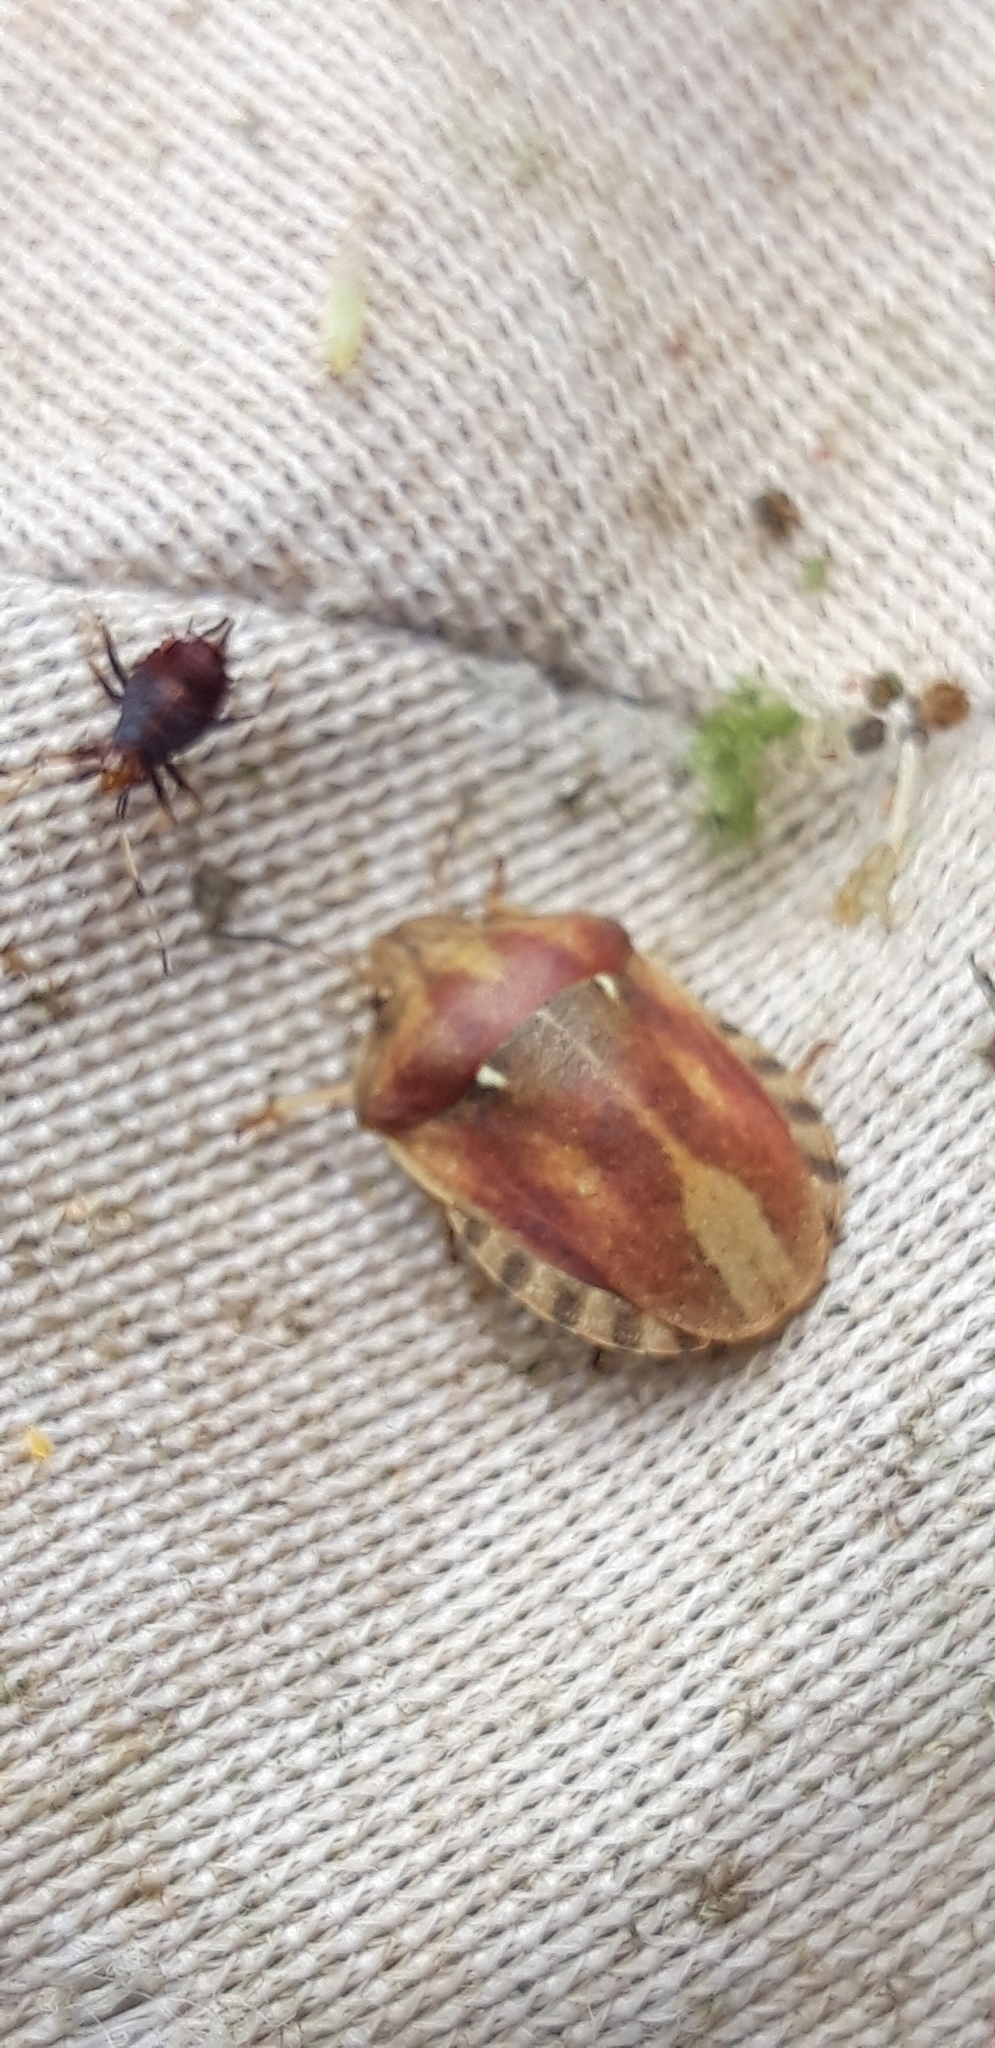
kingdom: Animalia
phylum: Arthropoda
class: Insecta
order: Hemiptera
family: Scutelleridae
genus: Eurygaster
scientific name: Eurygaster testudinaria
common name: Tortoise bug
